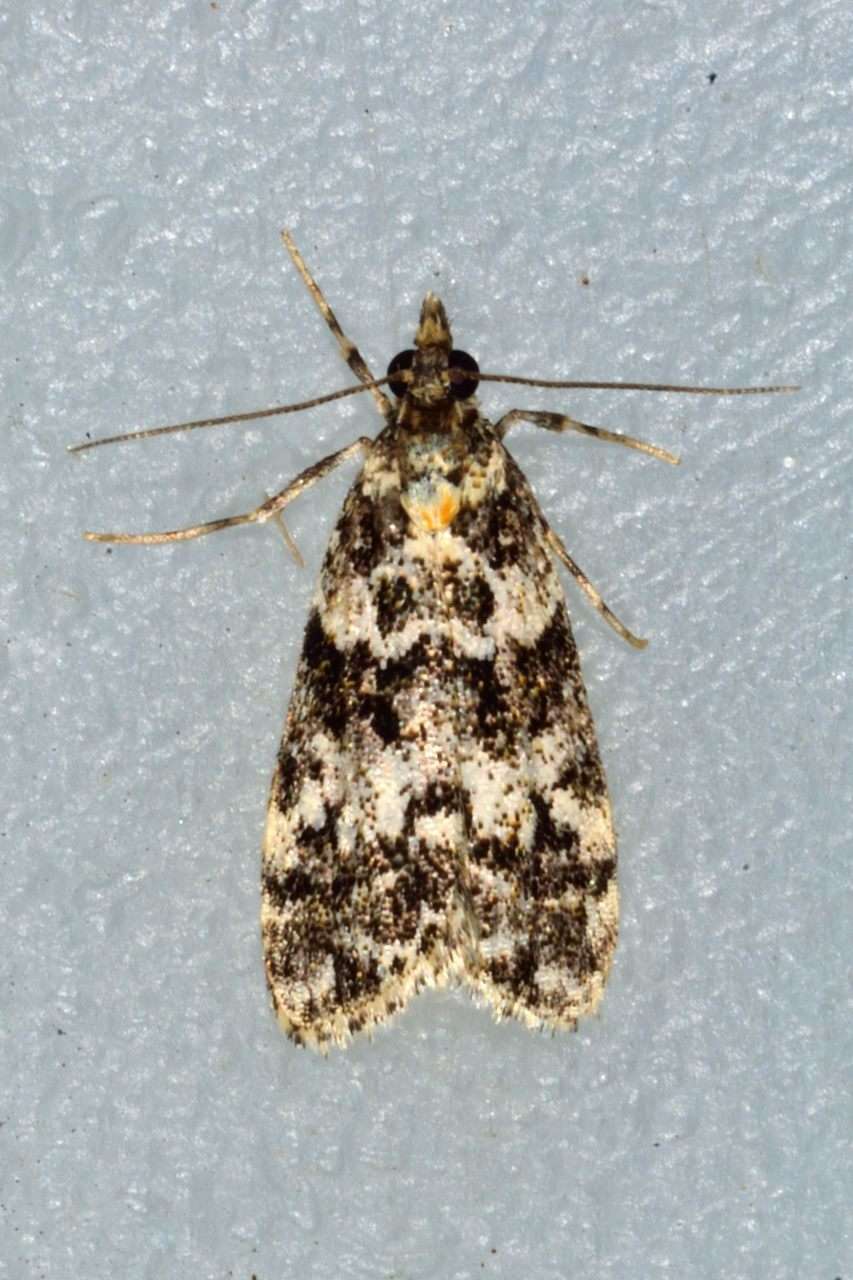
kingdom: Animalia
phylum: Arthropoda
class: Insecta
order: Lepidoptera
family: Crambidae
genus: Scoparia
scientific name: Scoparia crocospila
